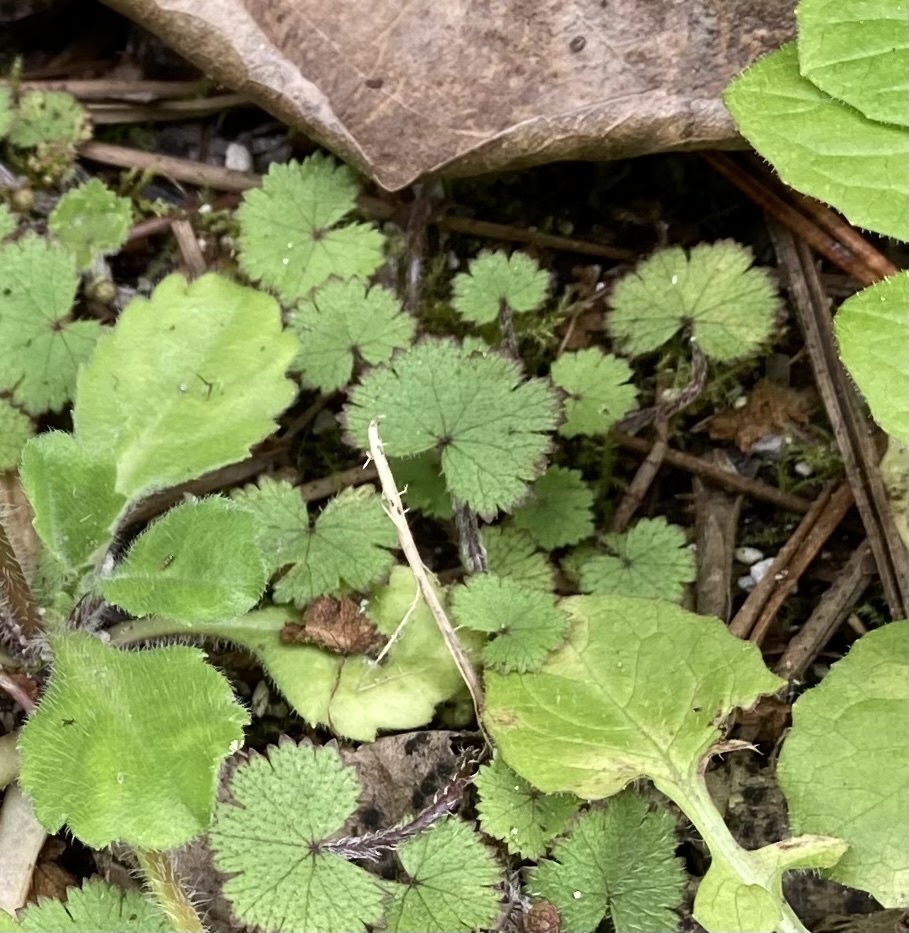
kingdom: Plantae
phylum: Tracheophyta
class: Magnoliopsida
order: Apiales
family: Araliaceae
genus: Hydrocotyle
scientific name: Hydrocotyle moschata
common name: Hairy pennywort
